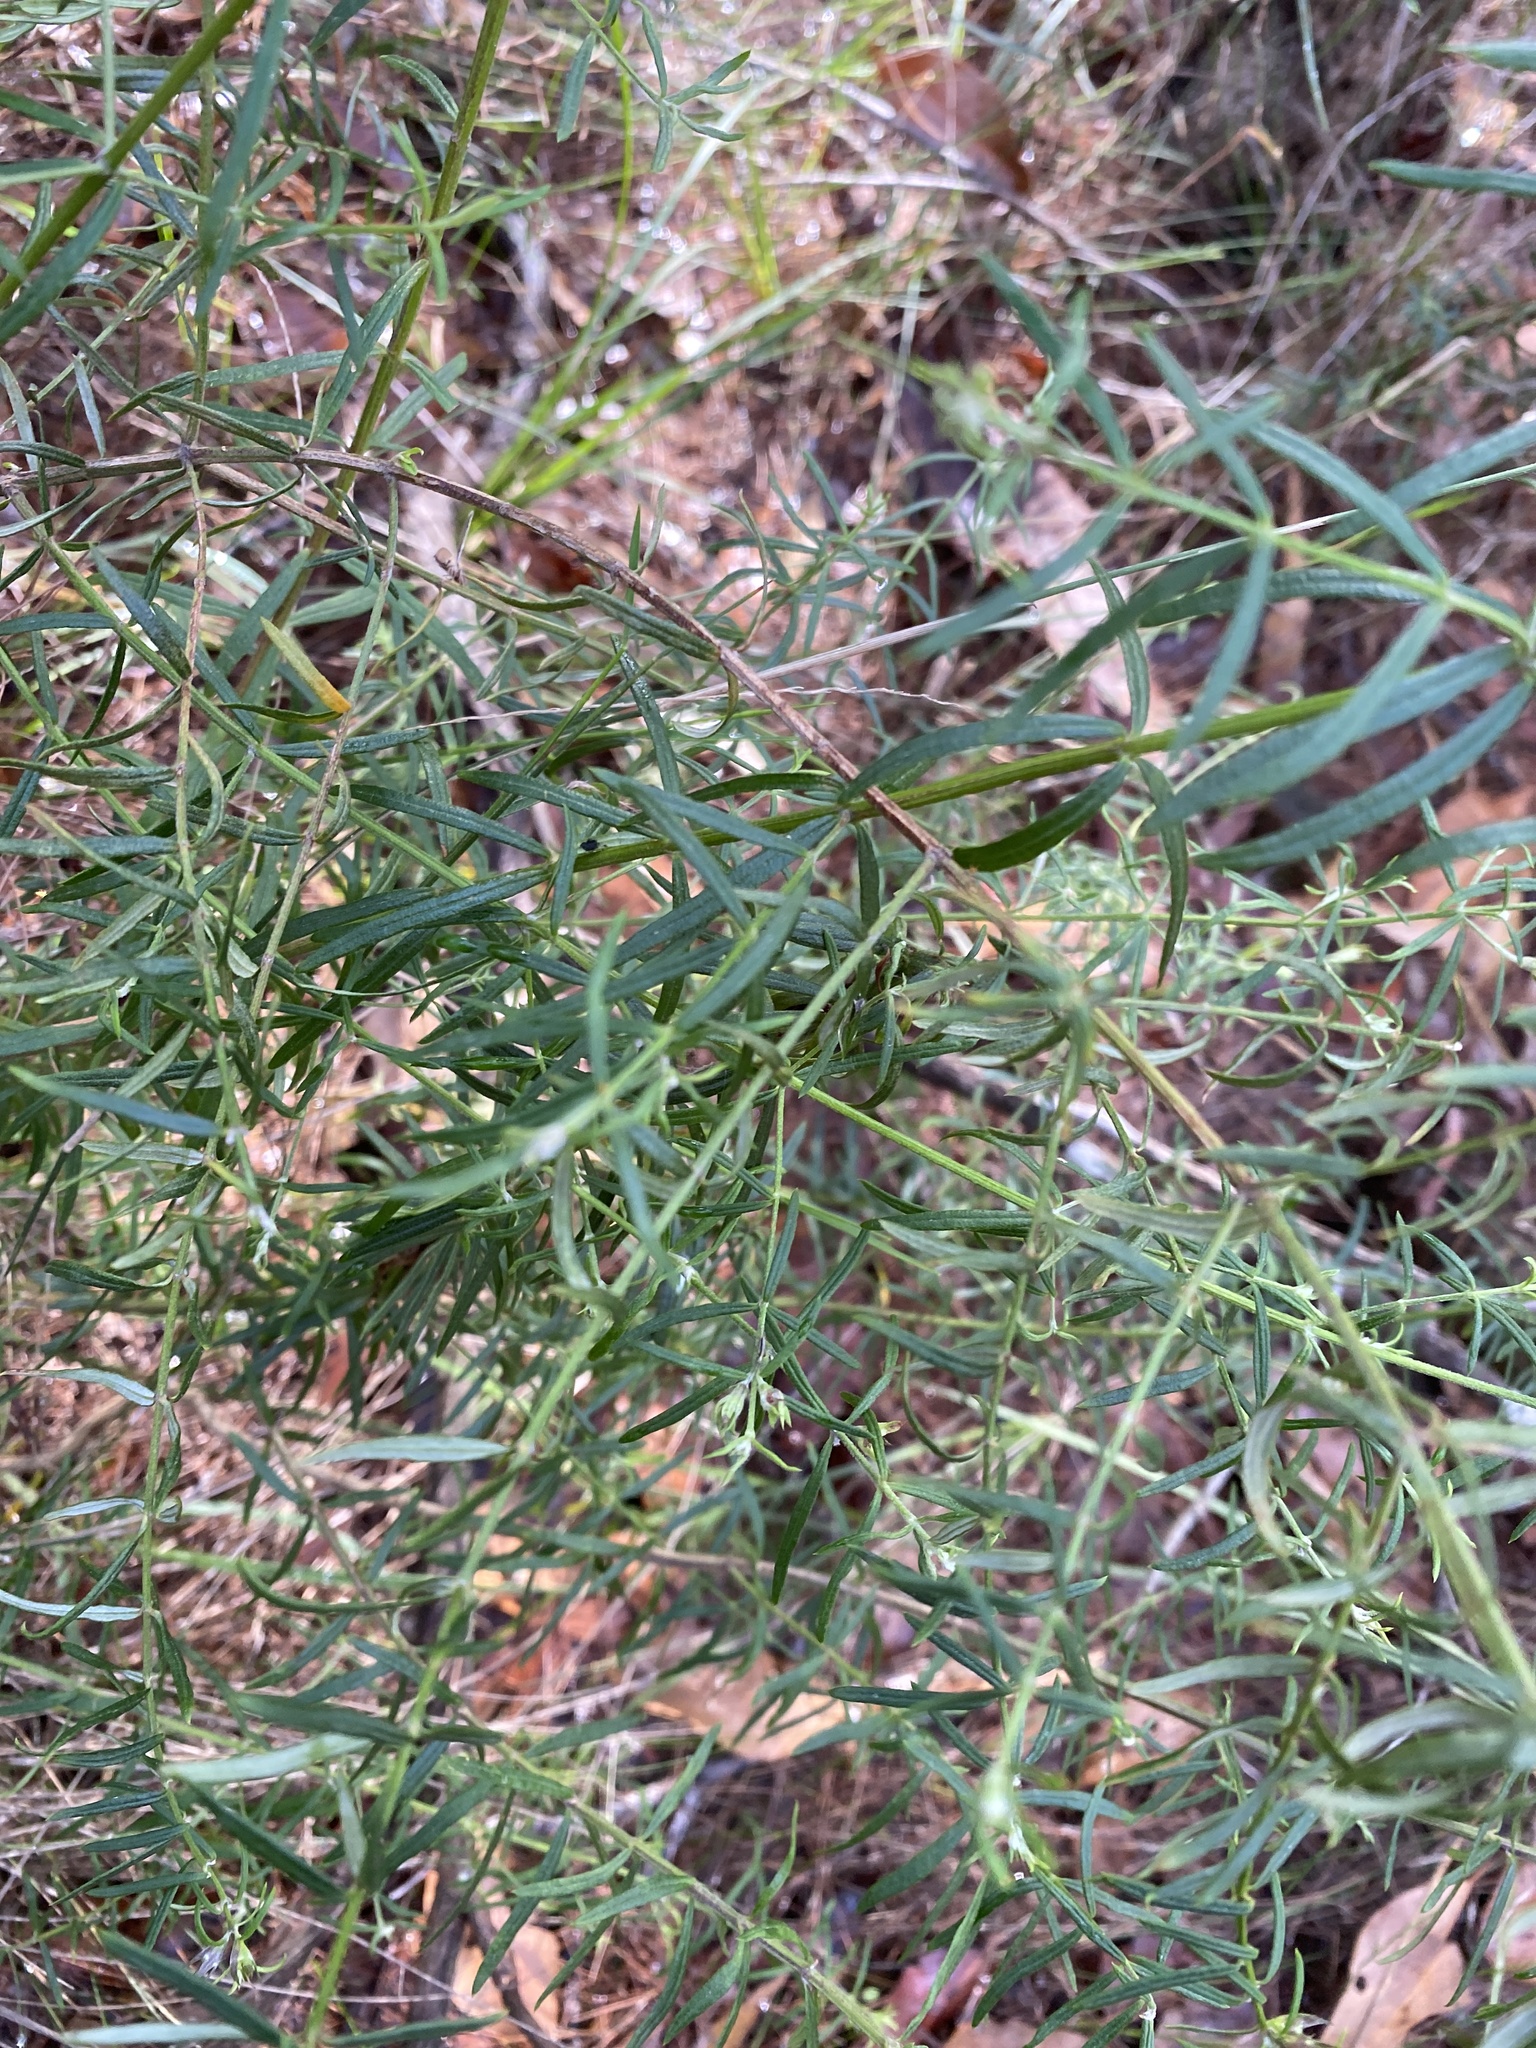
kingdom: Plantae
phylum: Tracheophyta
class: Magnoliopsida
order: Lamiales
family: Lamiaceae
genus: Westringia
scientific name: Westringia eremicola
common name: Slender western-rosemary
